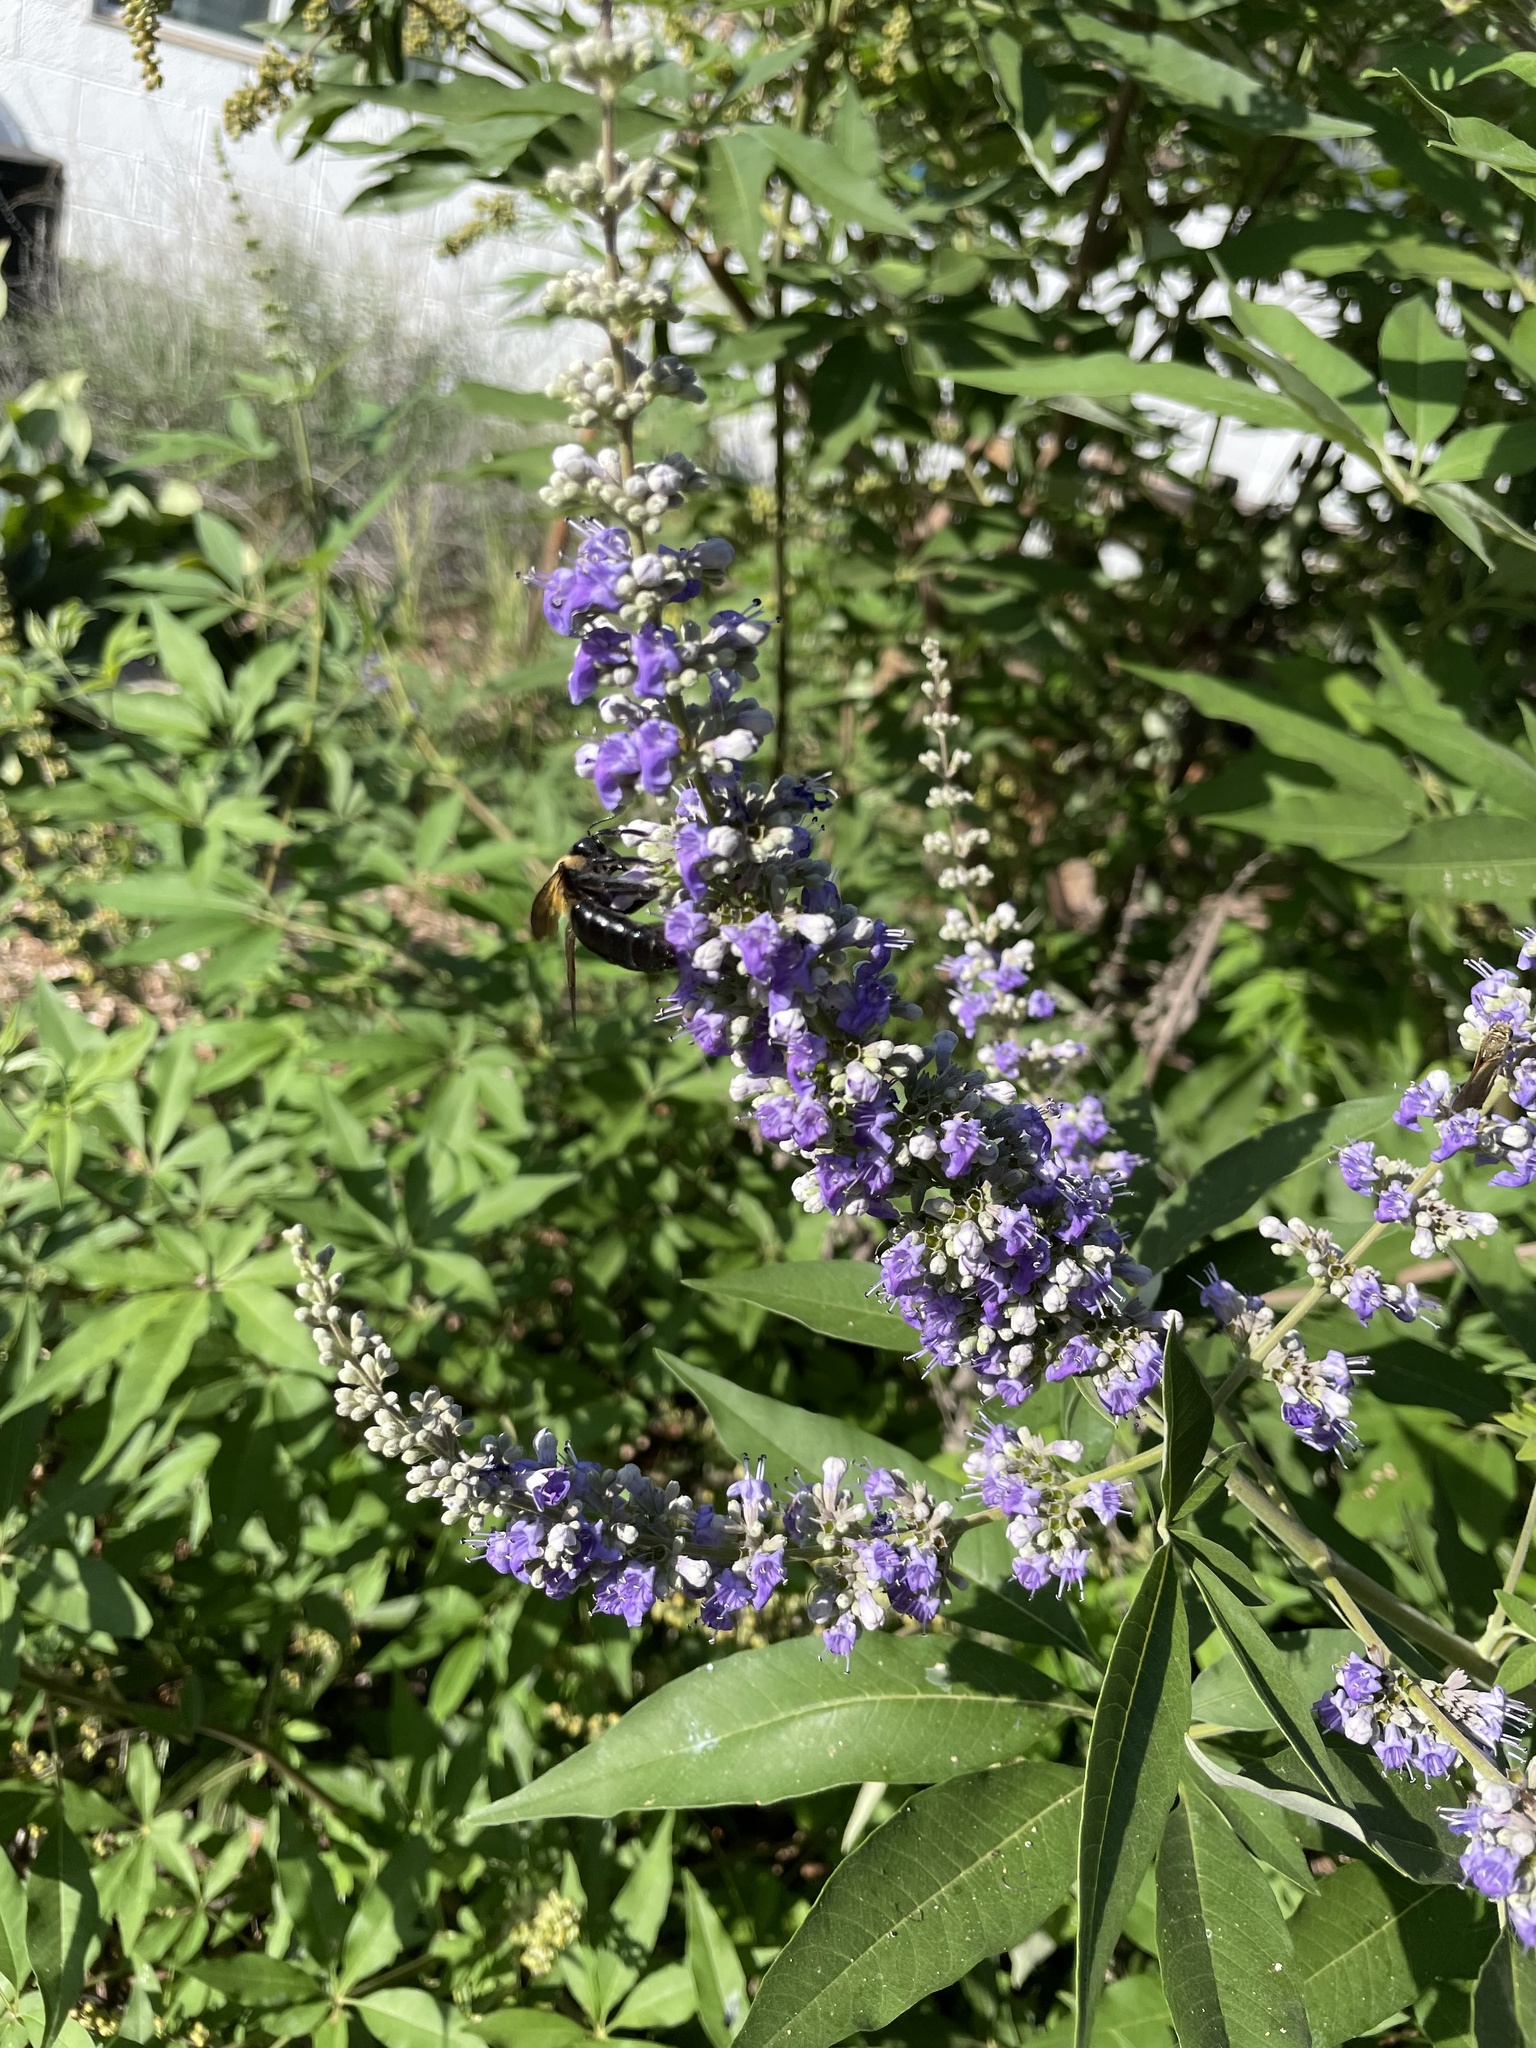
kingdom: Animalia
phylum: Arthropoda
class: Insecta
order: Hymenoptera
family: Apidae
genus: Xylocopa
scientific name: Xylocopa virginica
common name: Carpenter bee
